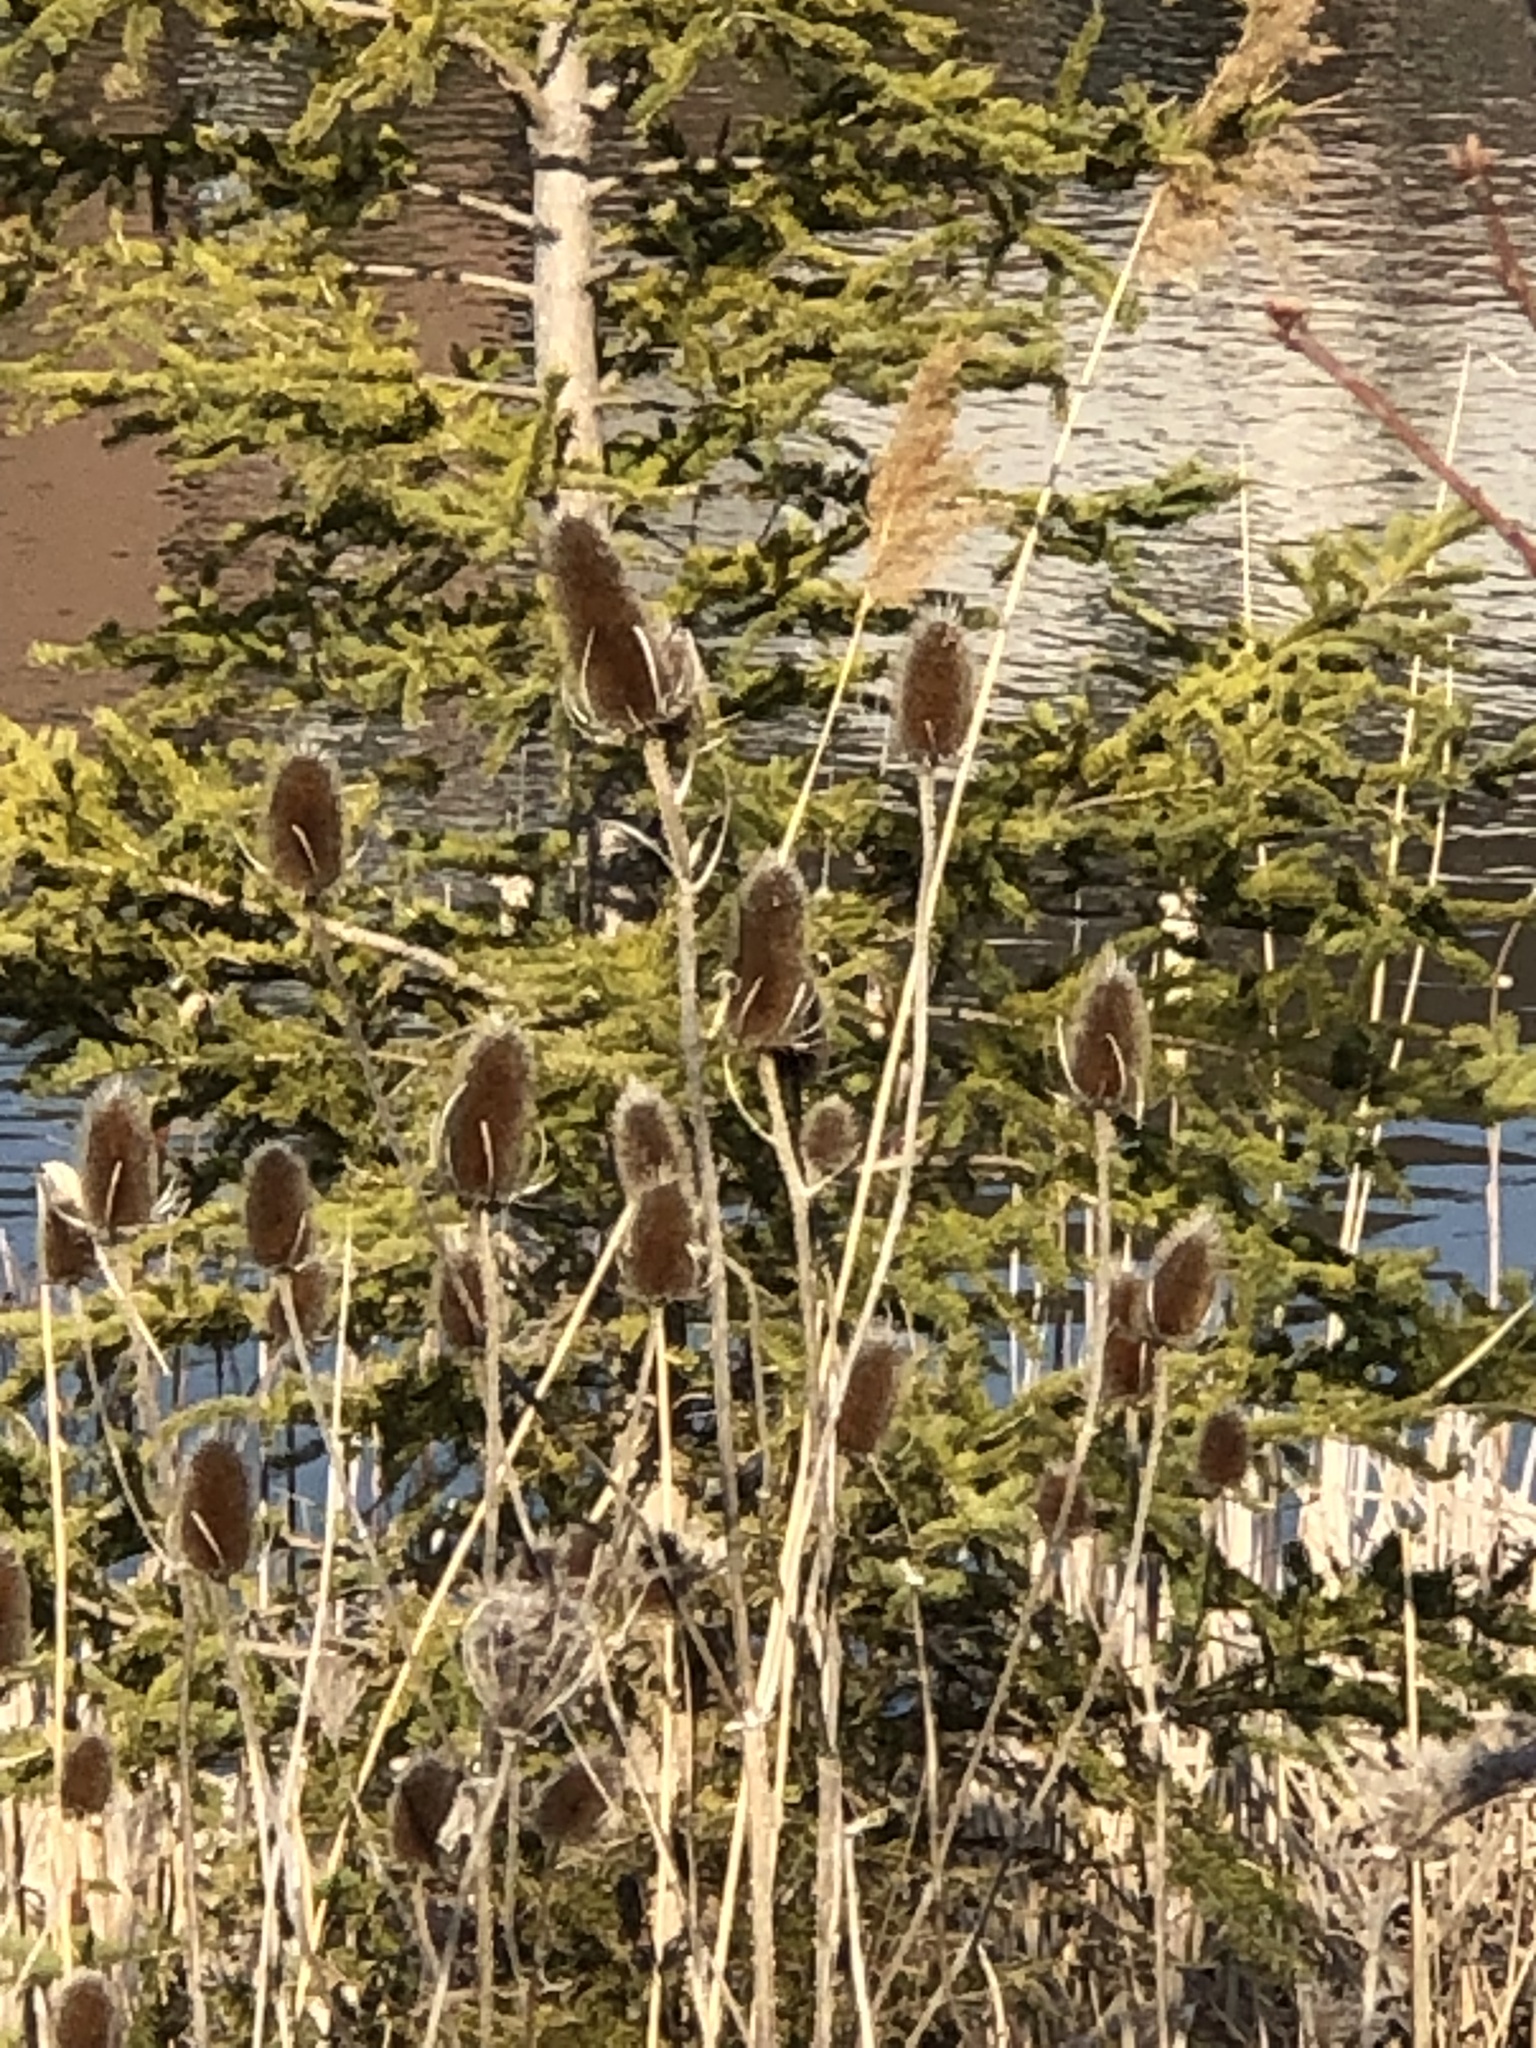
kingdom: Plantae
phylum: Tracheophyta
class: Magnoliopsida
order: Dipsacales
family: Caprifoliaceae
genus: Dipsacus
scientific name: Dipsacus fullonum
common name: Teasel
